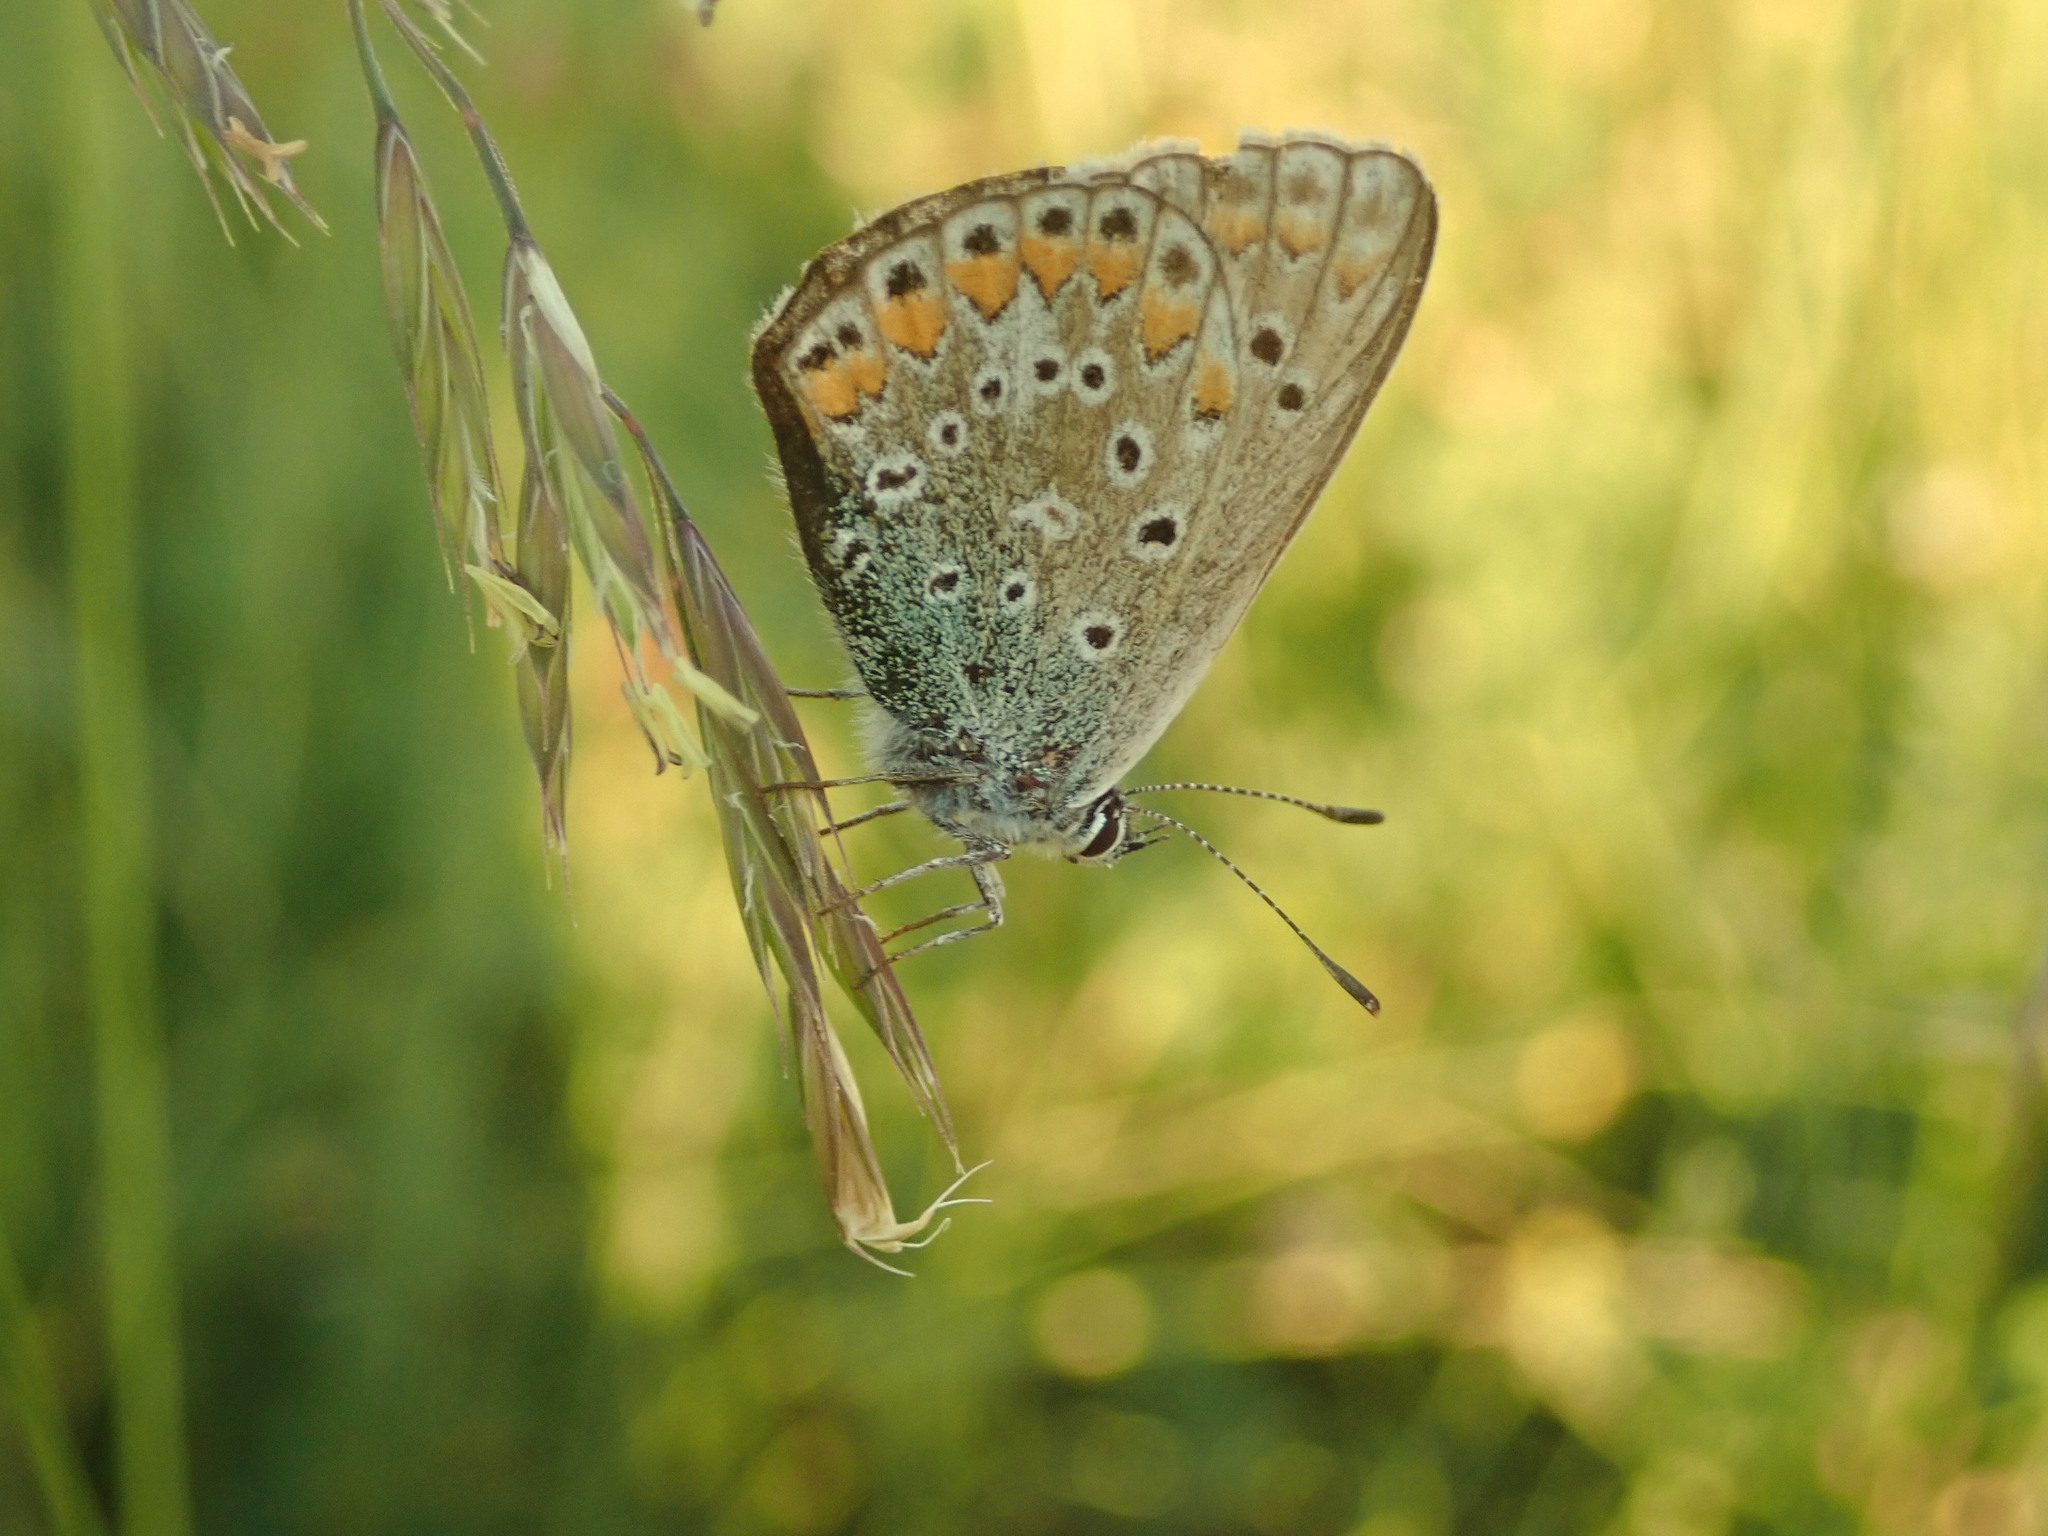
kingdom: Animalia
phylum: Arthropoda
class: Insecta
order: Lepidoptera
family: Lycaenidae
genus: Polyommatus
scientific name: Polyommatus icarus
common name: Common blue
